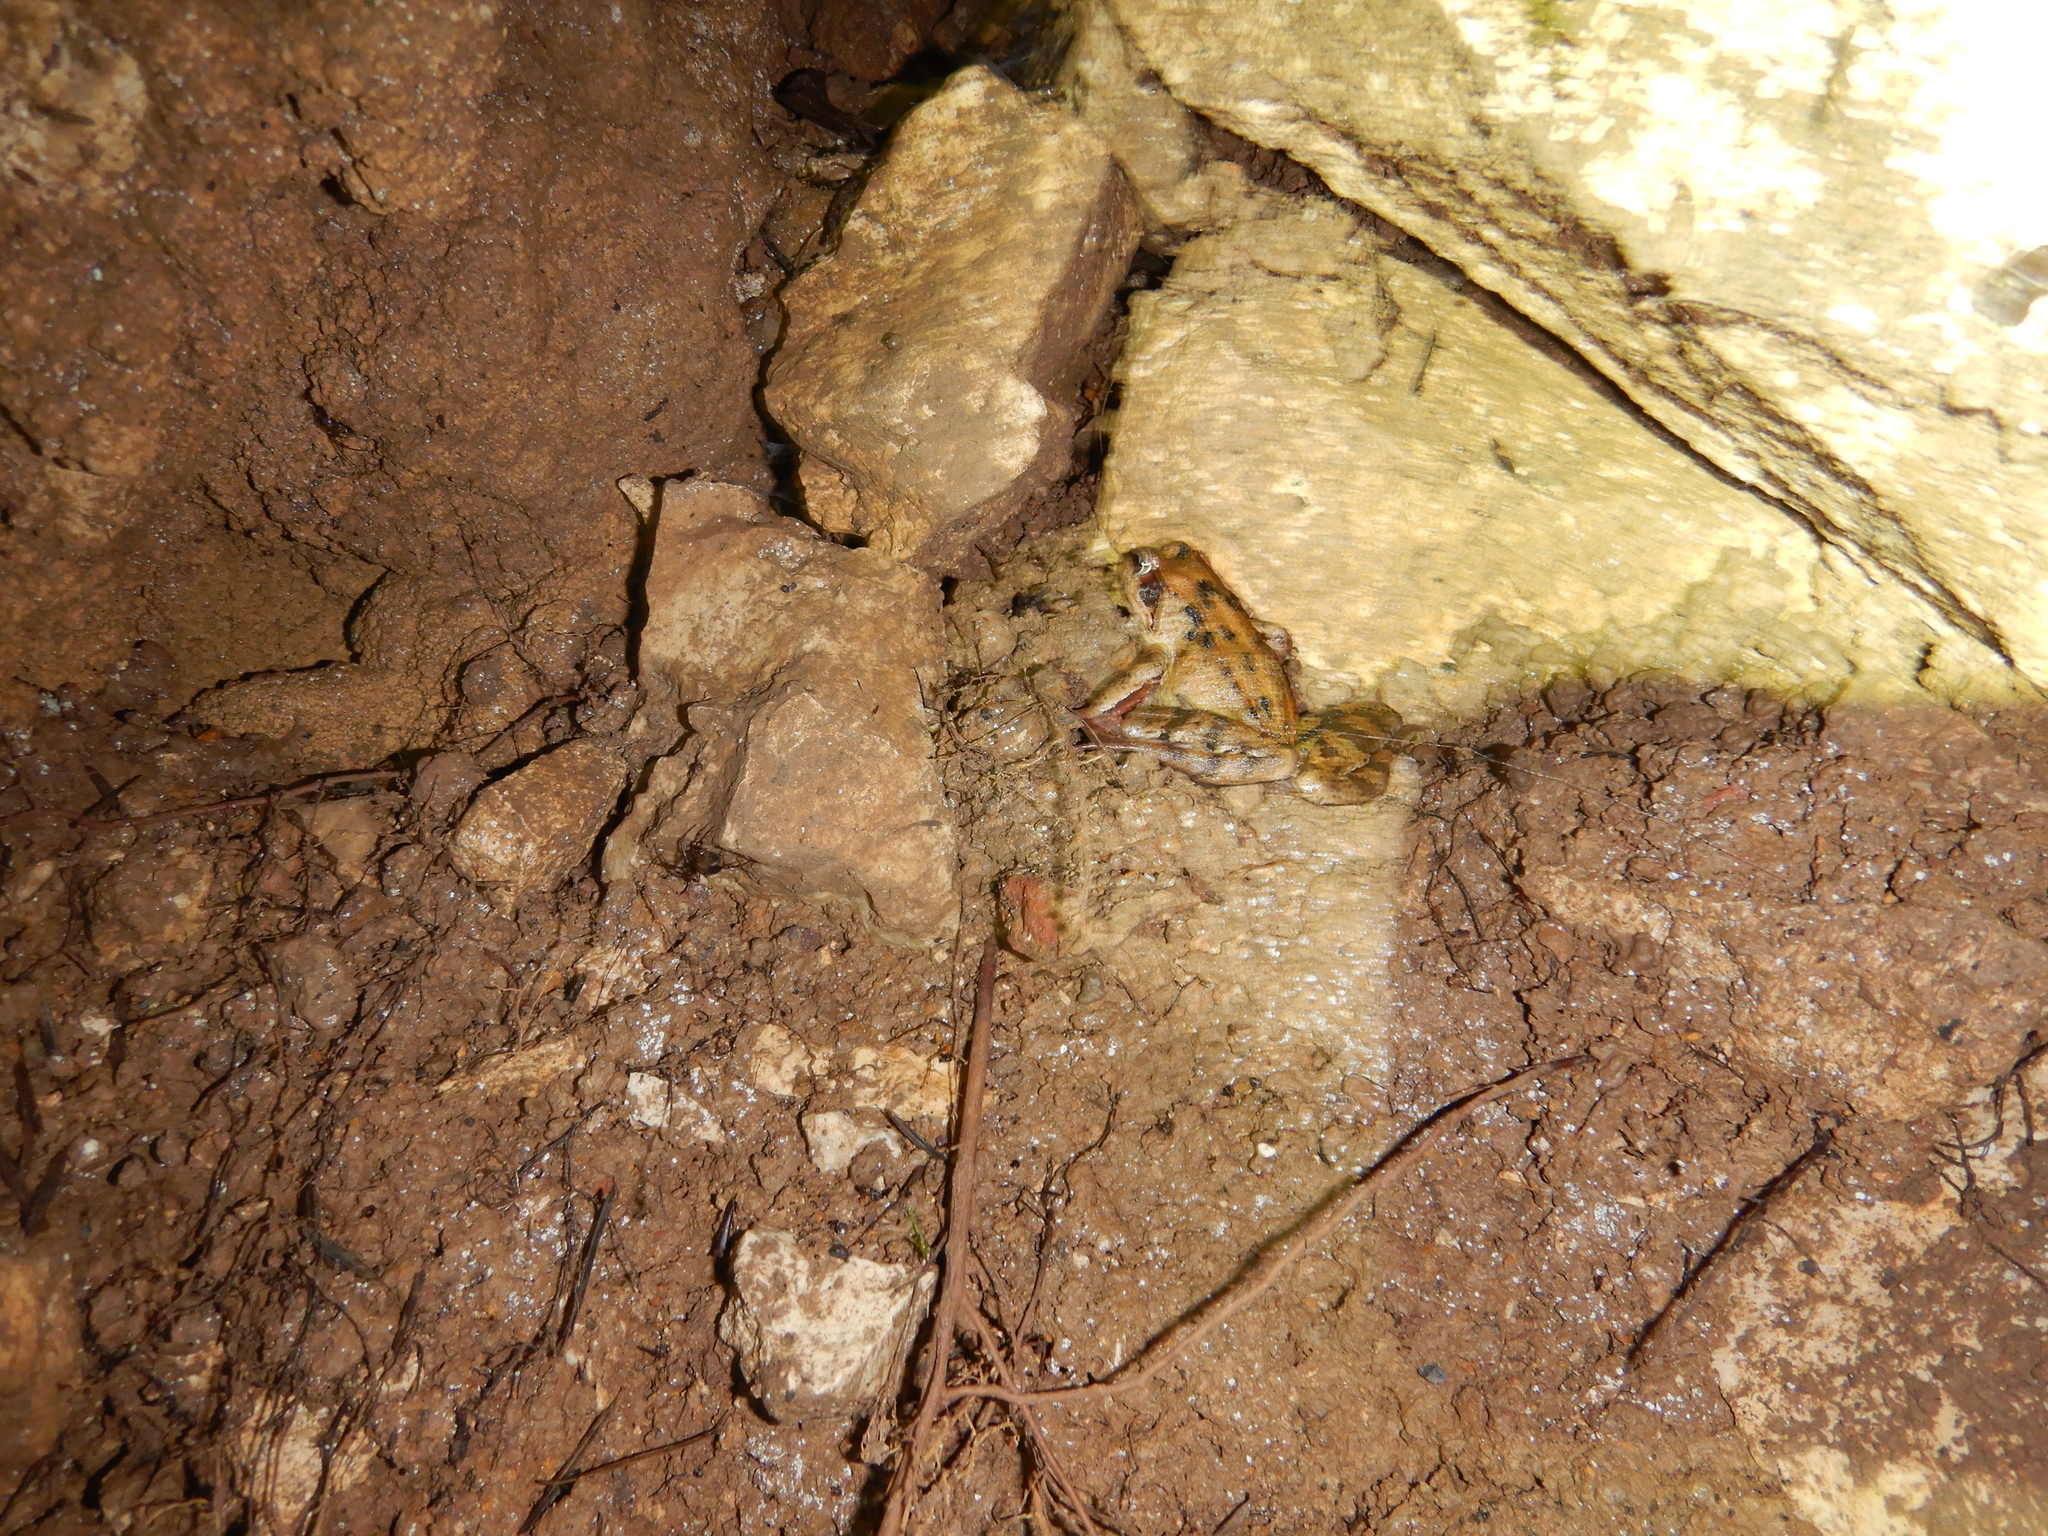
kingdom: Animalia
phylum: Chordata
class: Amphibia
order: Anura
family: Ranidae
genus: Rana
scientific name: Rana temporaria
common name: Common frog
